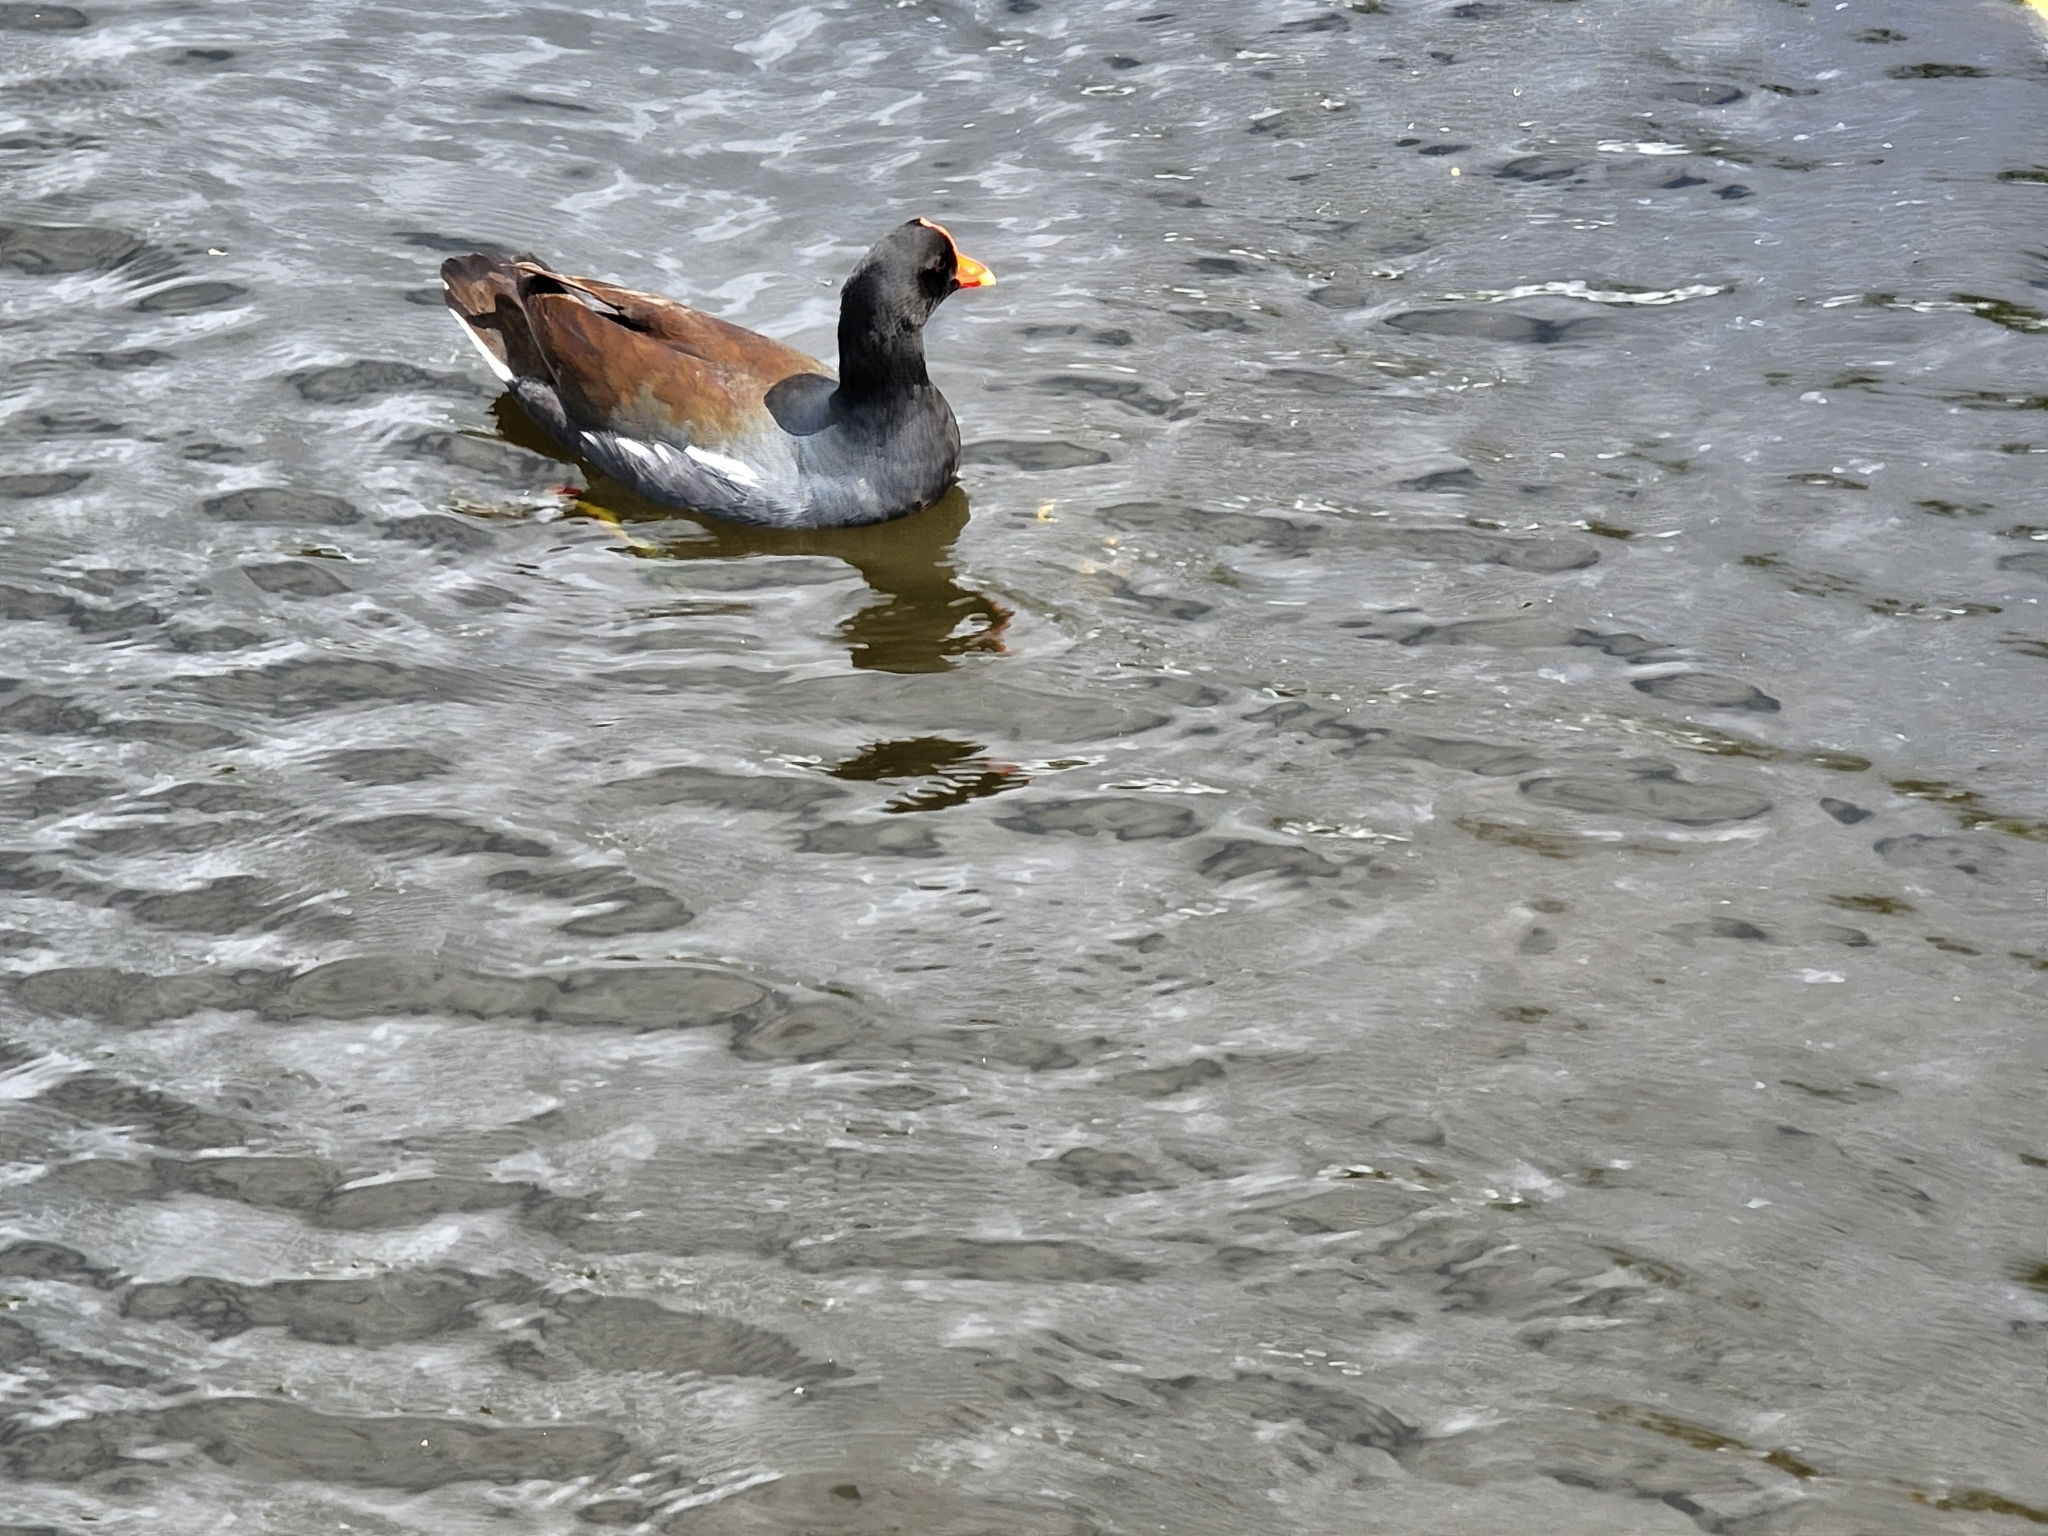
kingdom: Animalia
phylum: Chordata
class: Aves
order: Gruiformes
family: Rallidae
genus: Gallinula
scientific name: Gallinula chloropus
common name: Common moorhen
